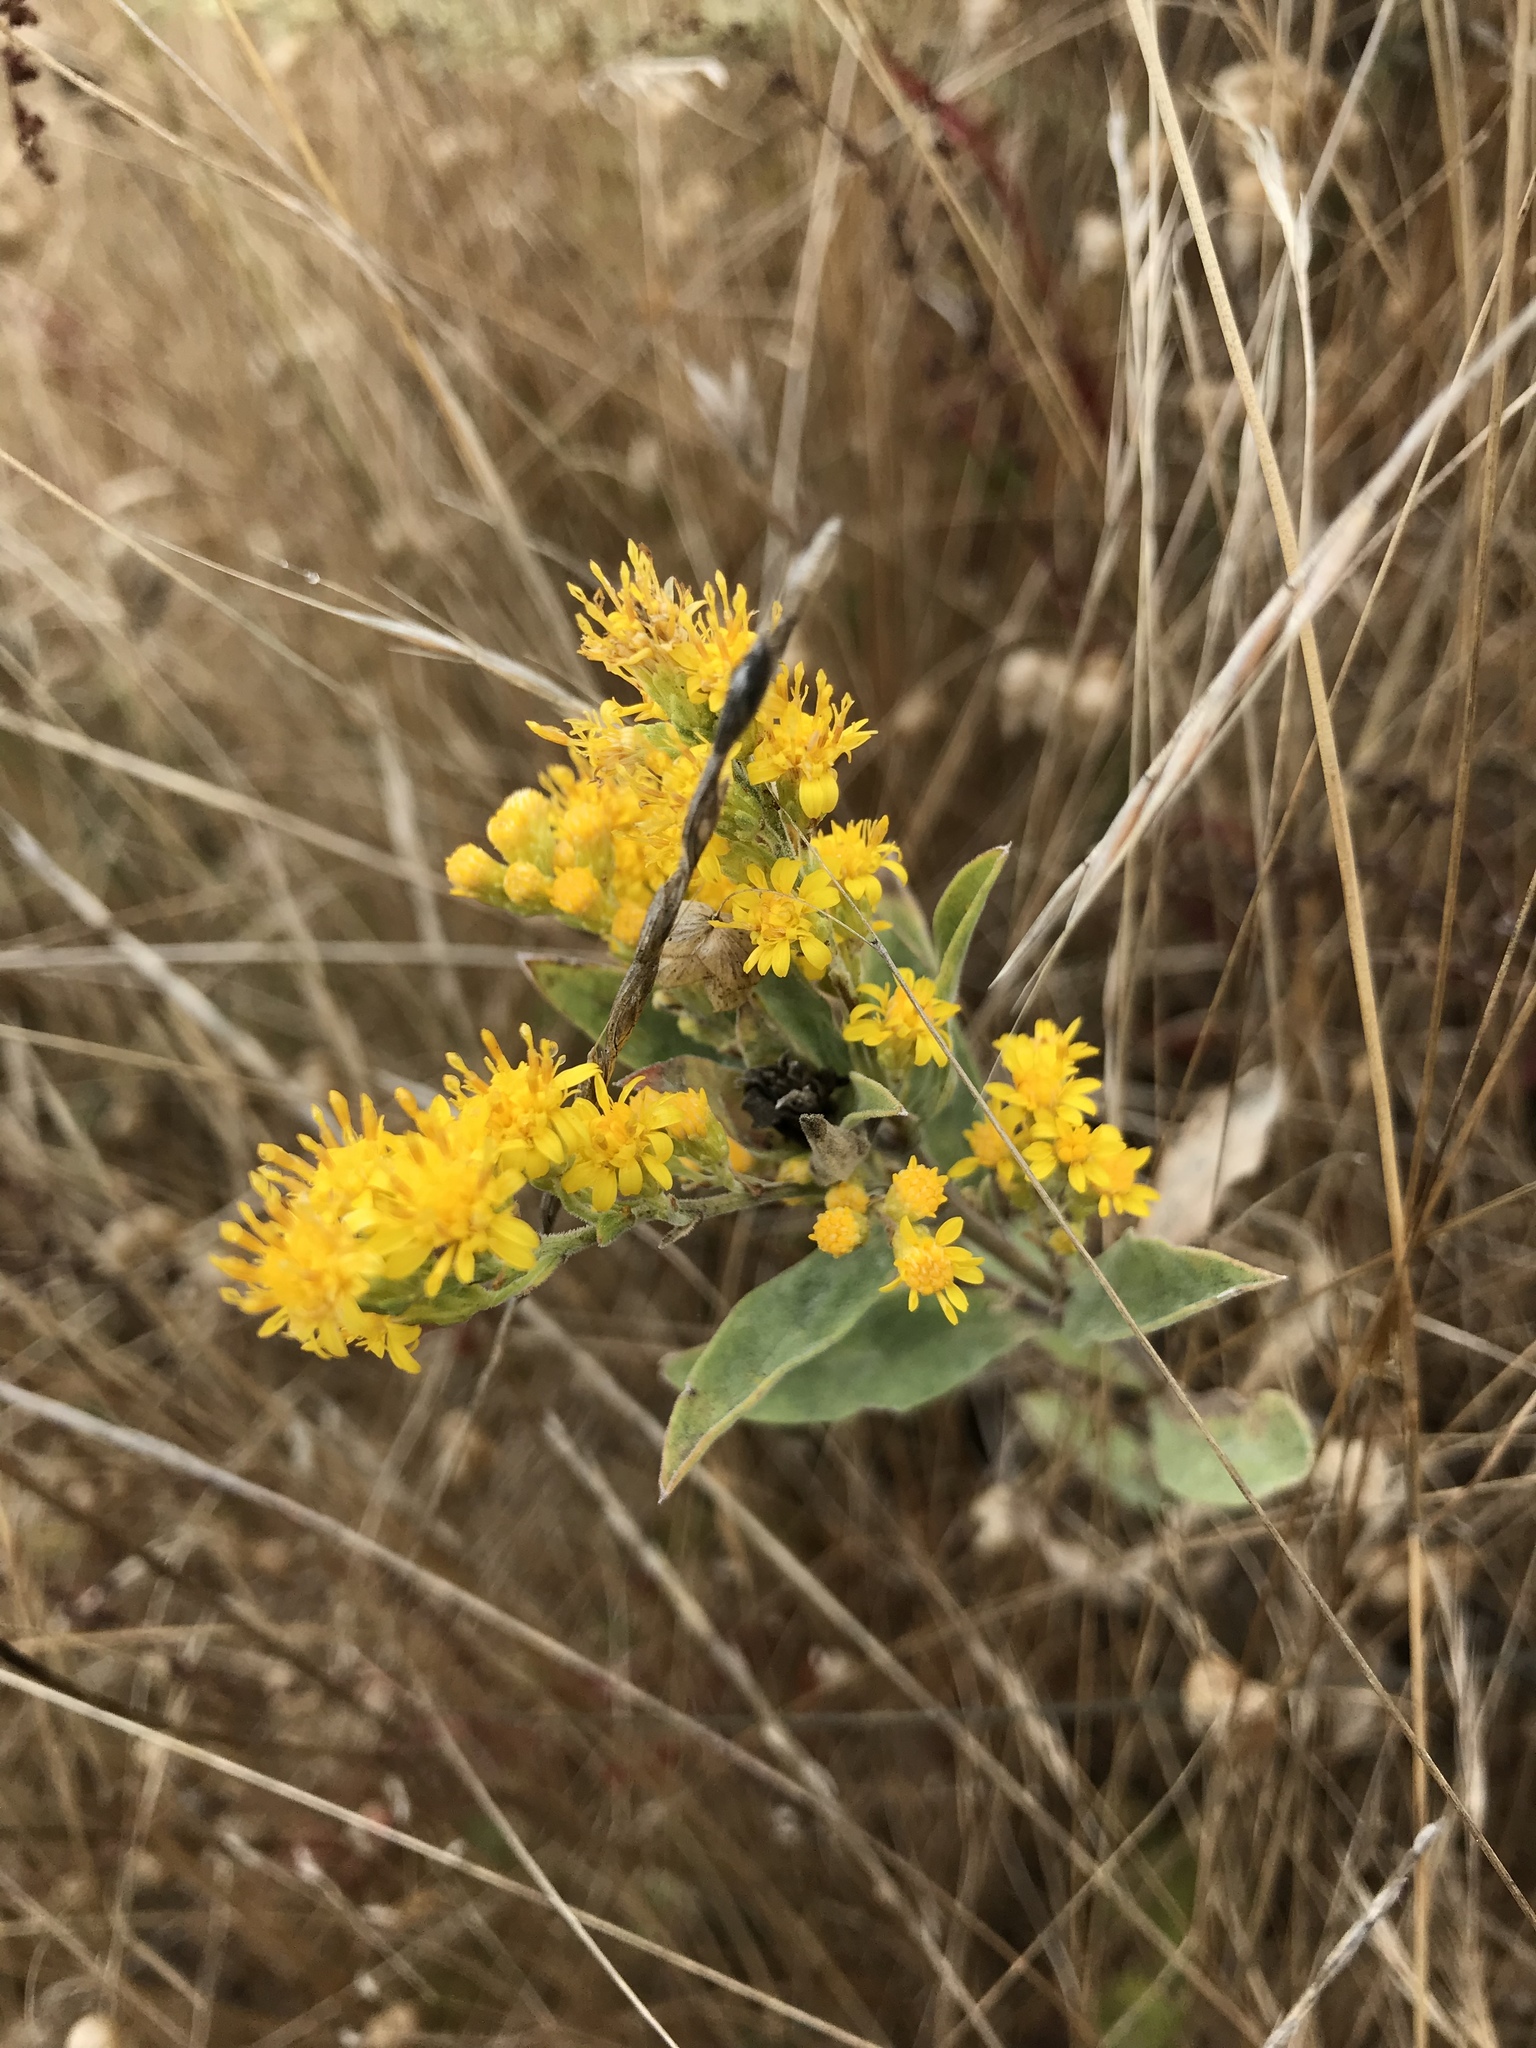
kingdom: Plantae
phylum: Tracheophyta
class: Magnoliopsida
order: Asterales
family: Asteraceae
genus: Solidago
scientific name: Solidago californica
